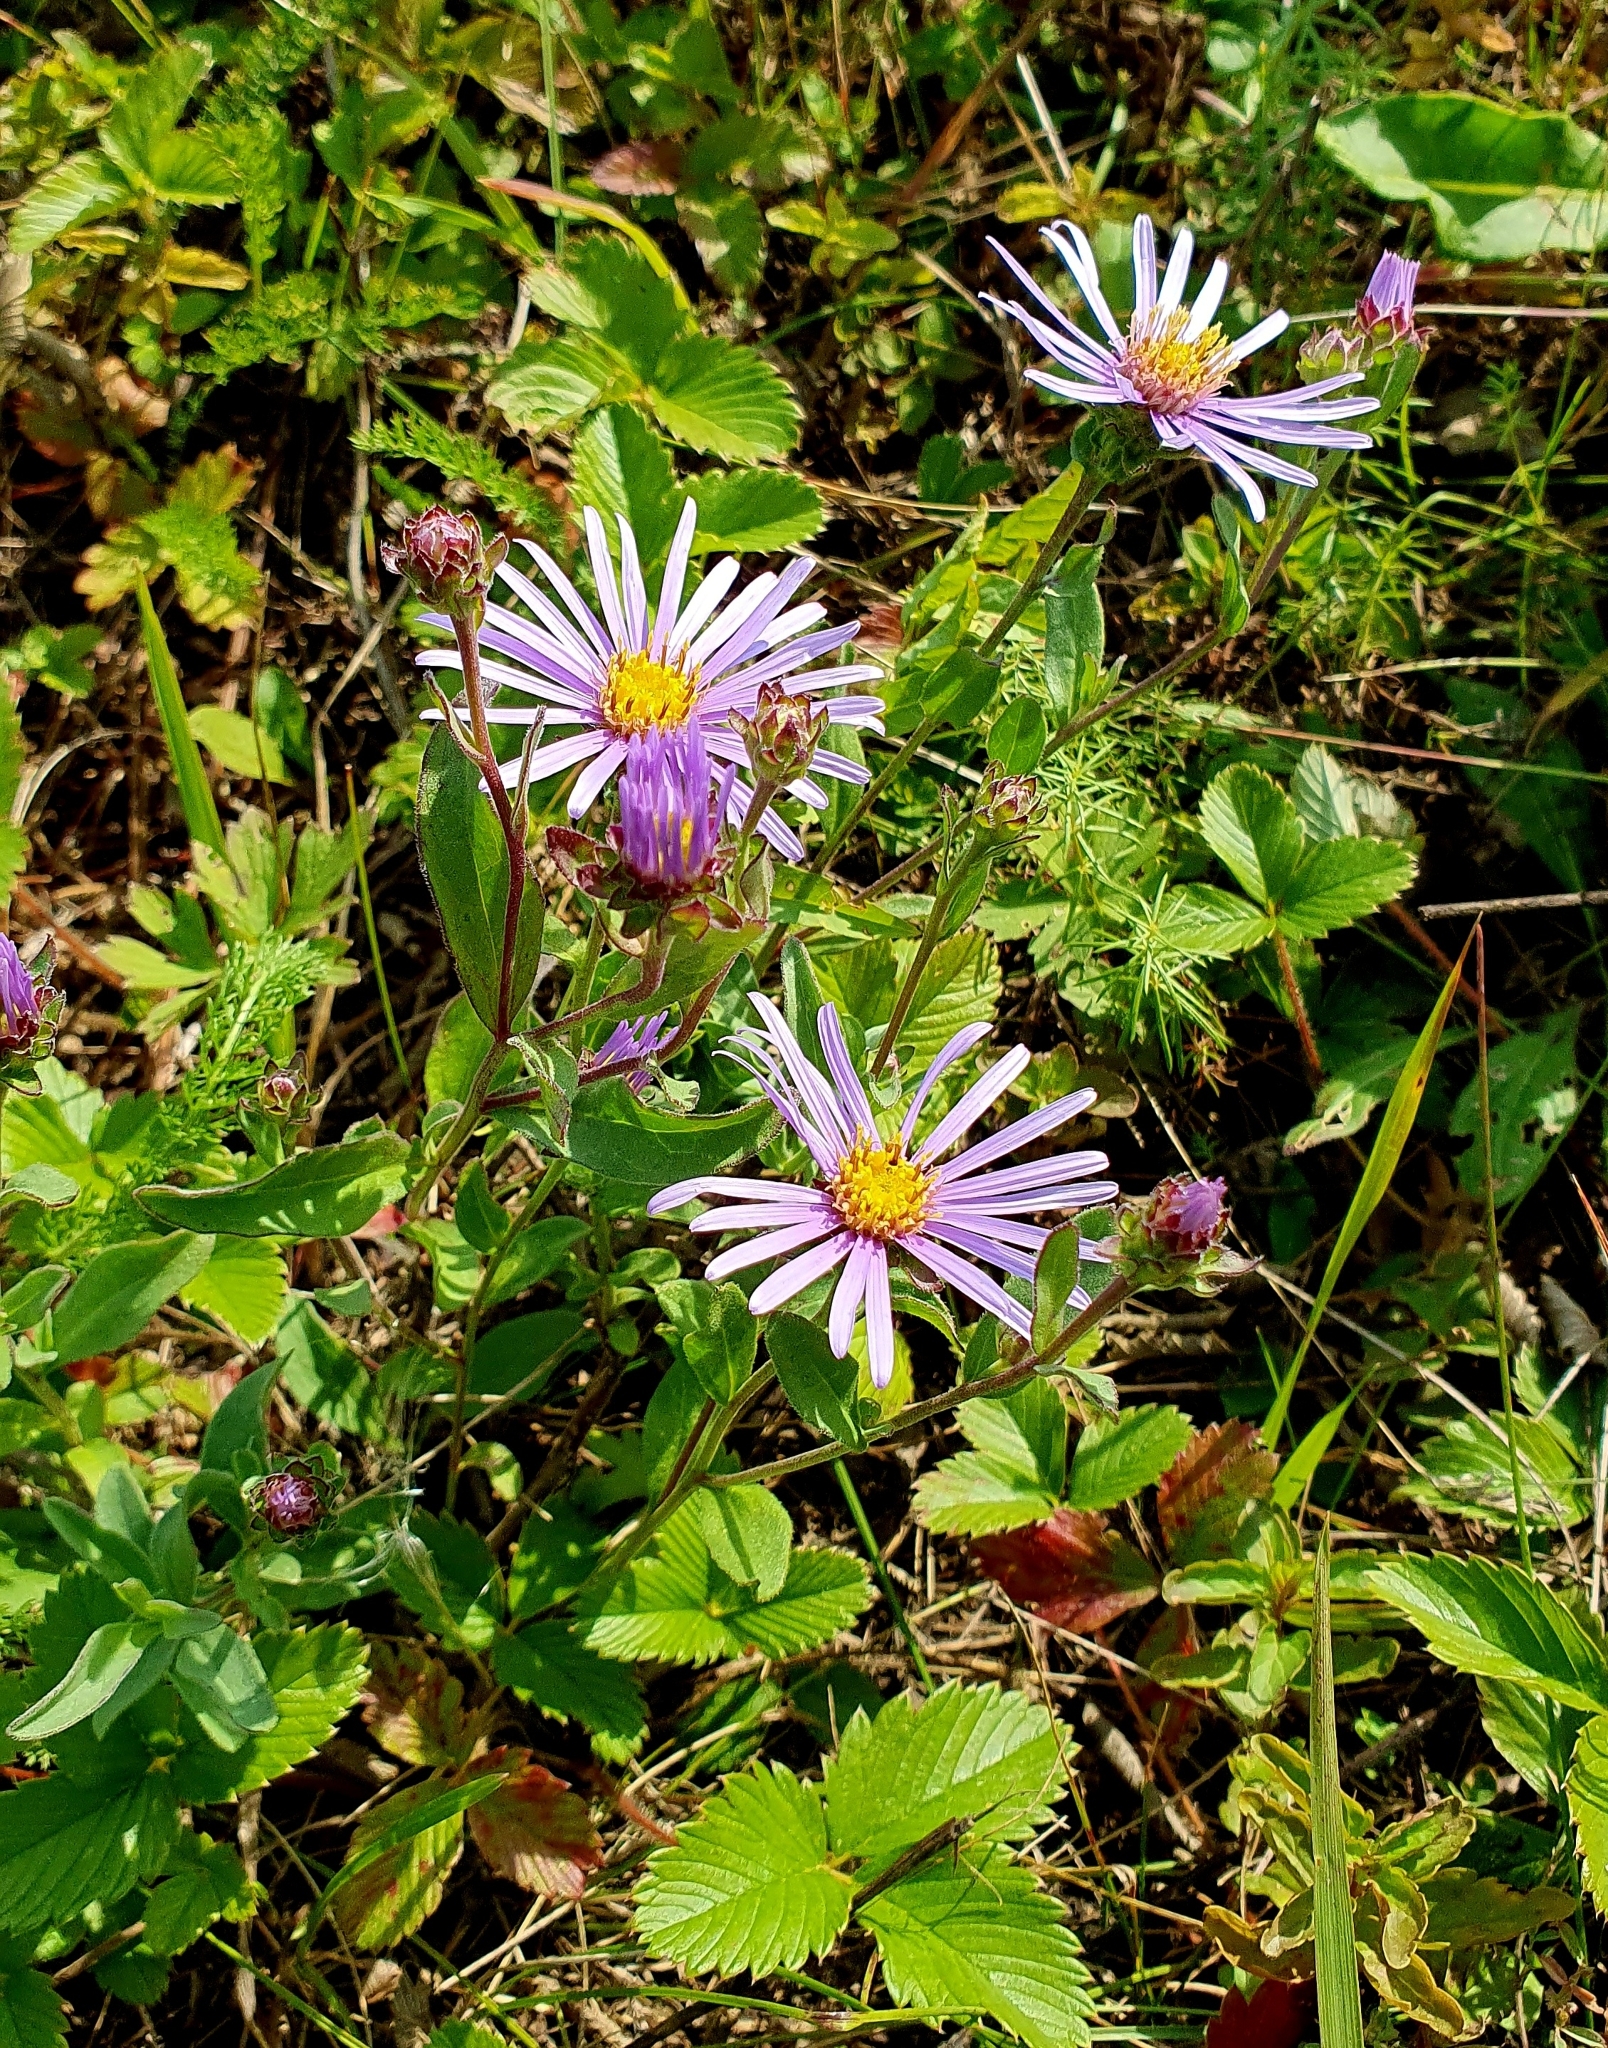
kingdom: Plantae
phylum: Tracheophyta
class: Magnoliopsida
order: Asterales
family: Asteraceae
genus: Aster
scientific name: Aster amellus
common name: European michaelmas daisy
